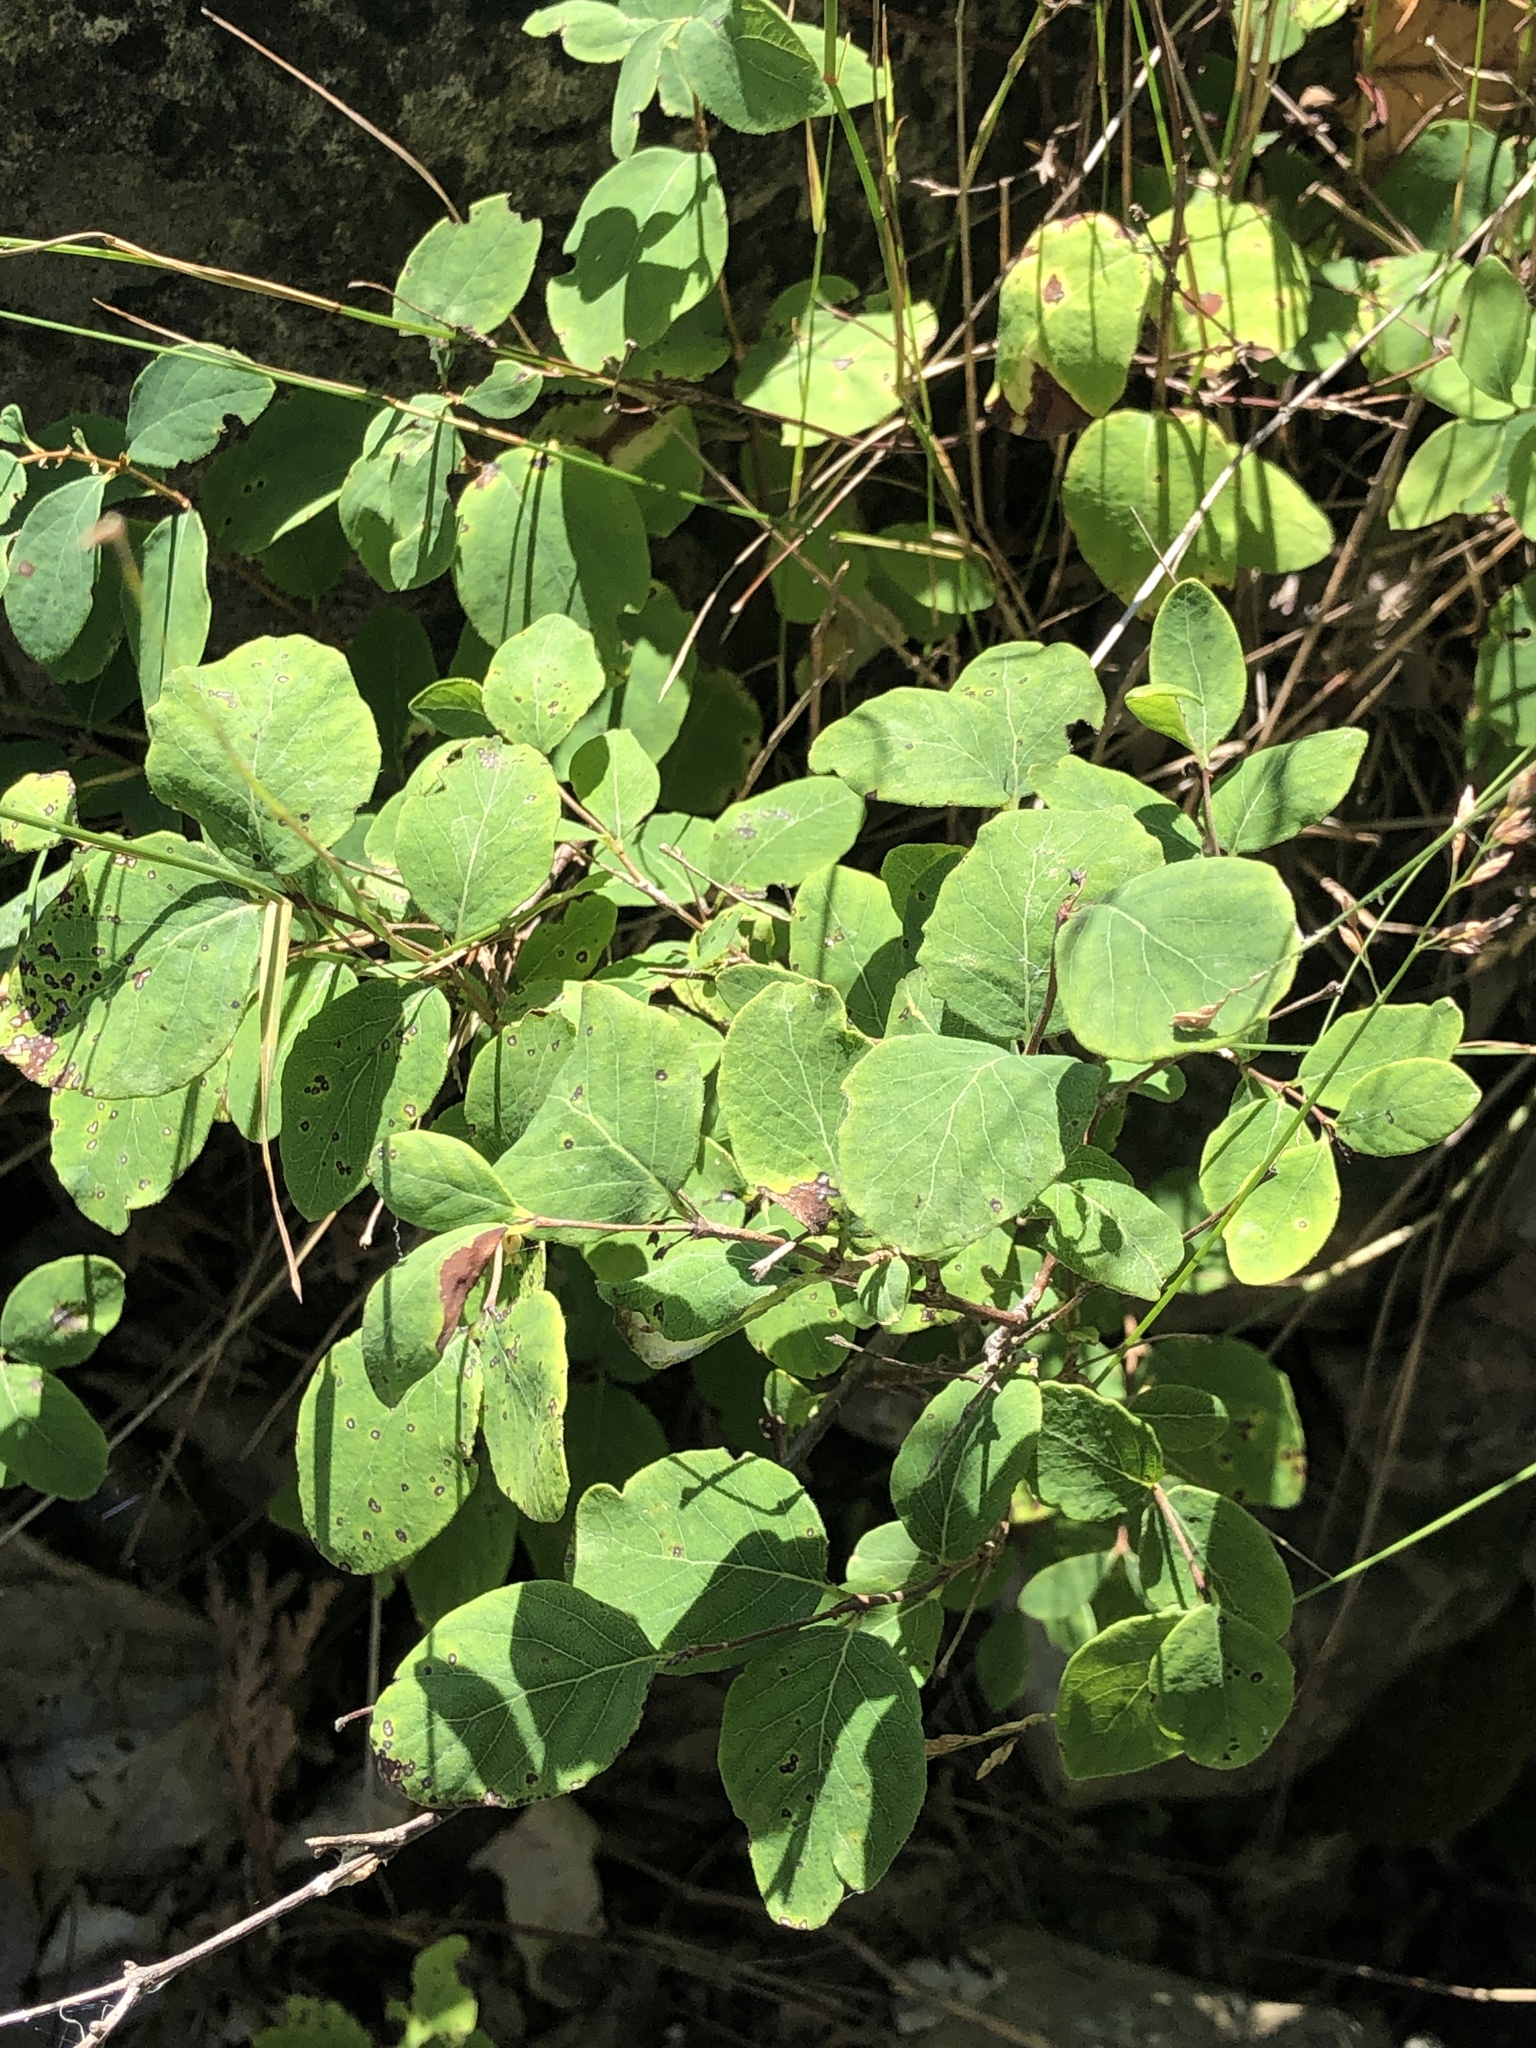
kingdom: Plantae
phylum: Tracheophyta
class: Magnoliopsida
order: Dipsacales
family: Caprifoliaceae
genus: Symphoricarpos
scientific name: Symphoricarpos albus
